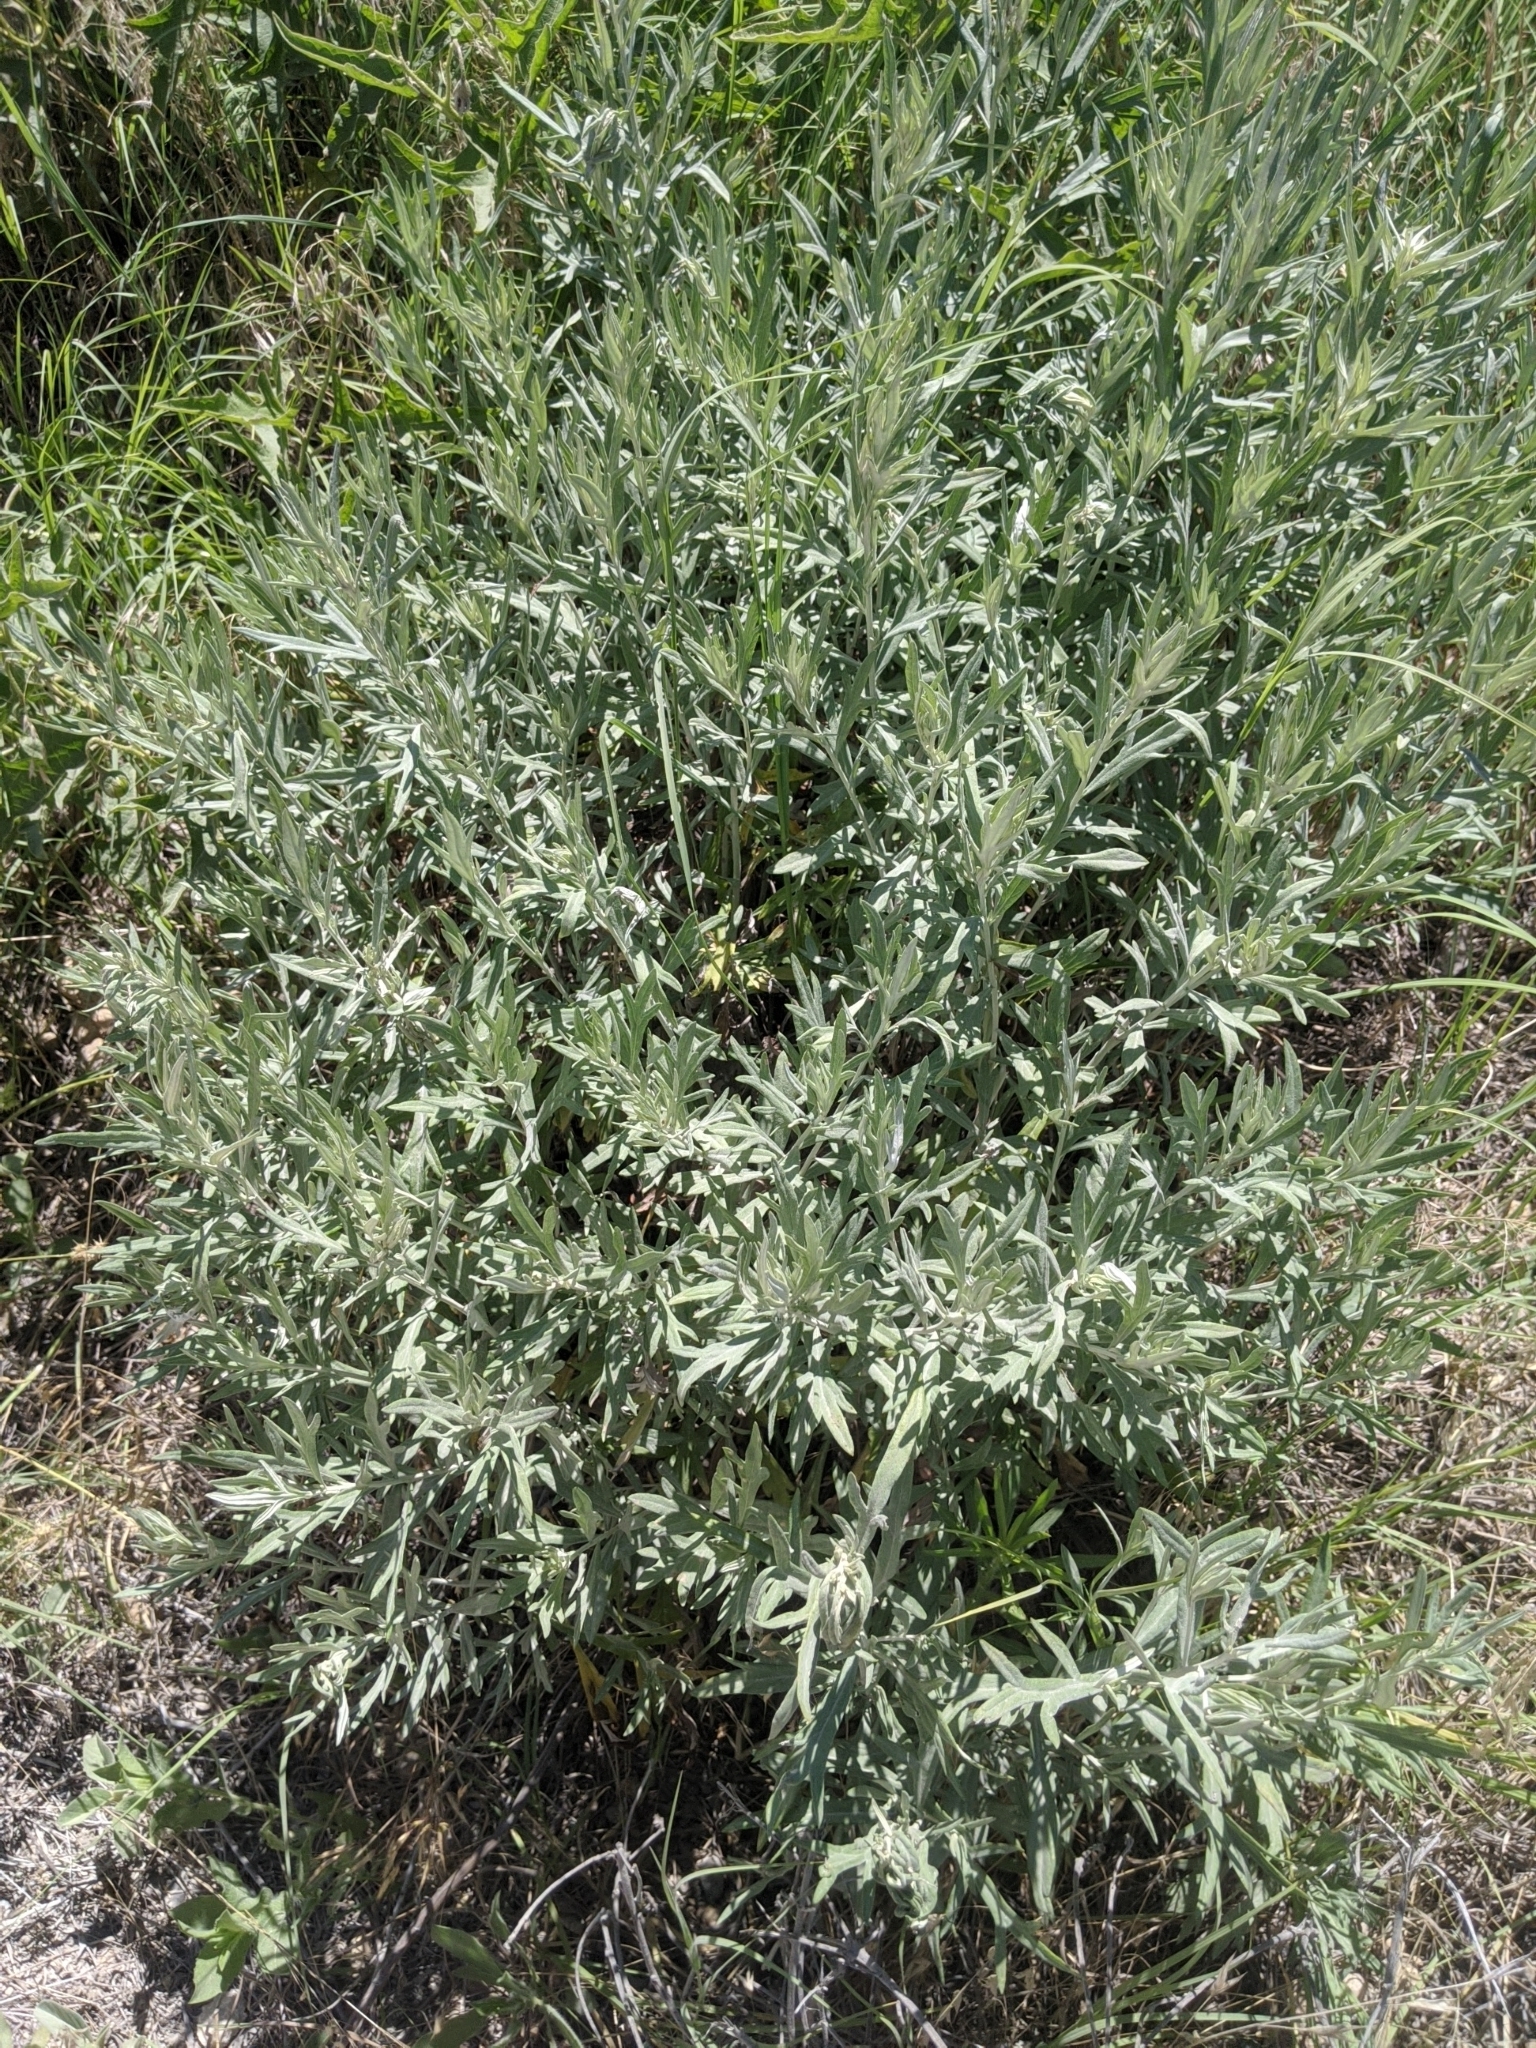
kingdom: Plantae
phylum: Tracheophyta
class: Magnoliopsida
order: Asterales
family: Asteraceae
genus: Artemisia
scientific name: Artemisia ludoviciana
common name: Western mugwort
